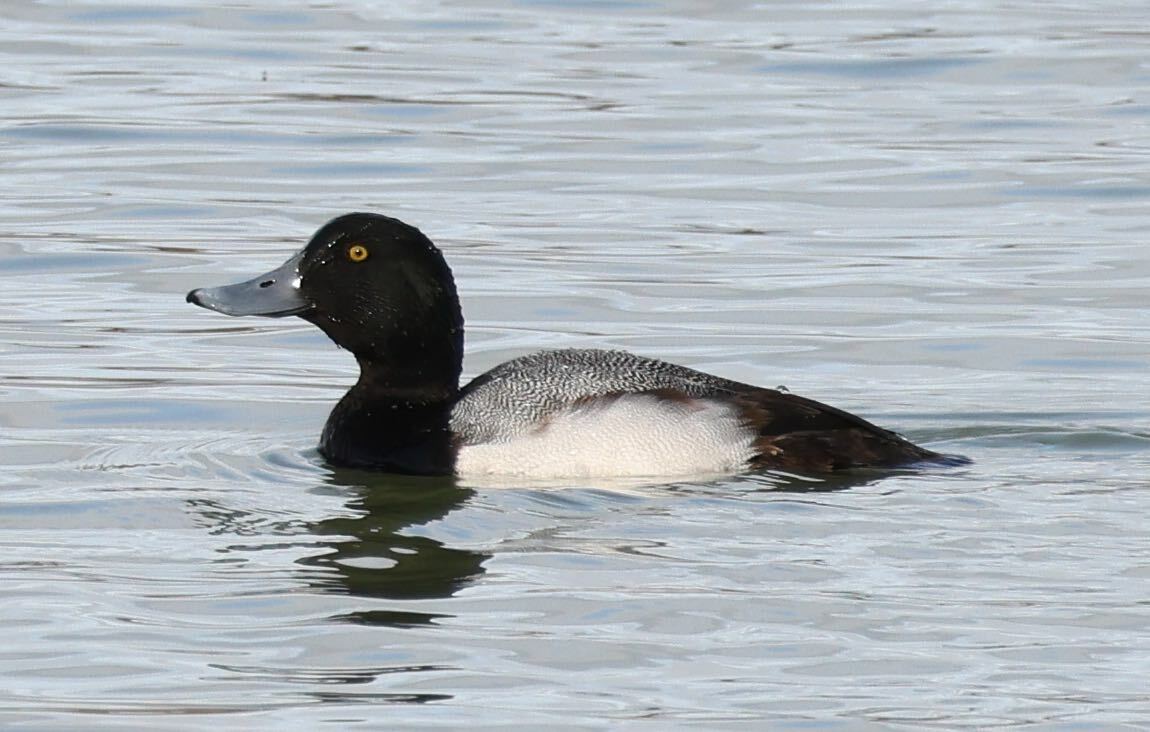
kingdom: Animalia
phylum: Chordata
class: Aves
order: Anseriformes
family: Anatidae
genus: Aythya
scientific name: Aythya marila
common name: Greater scaup
